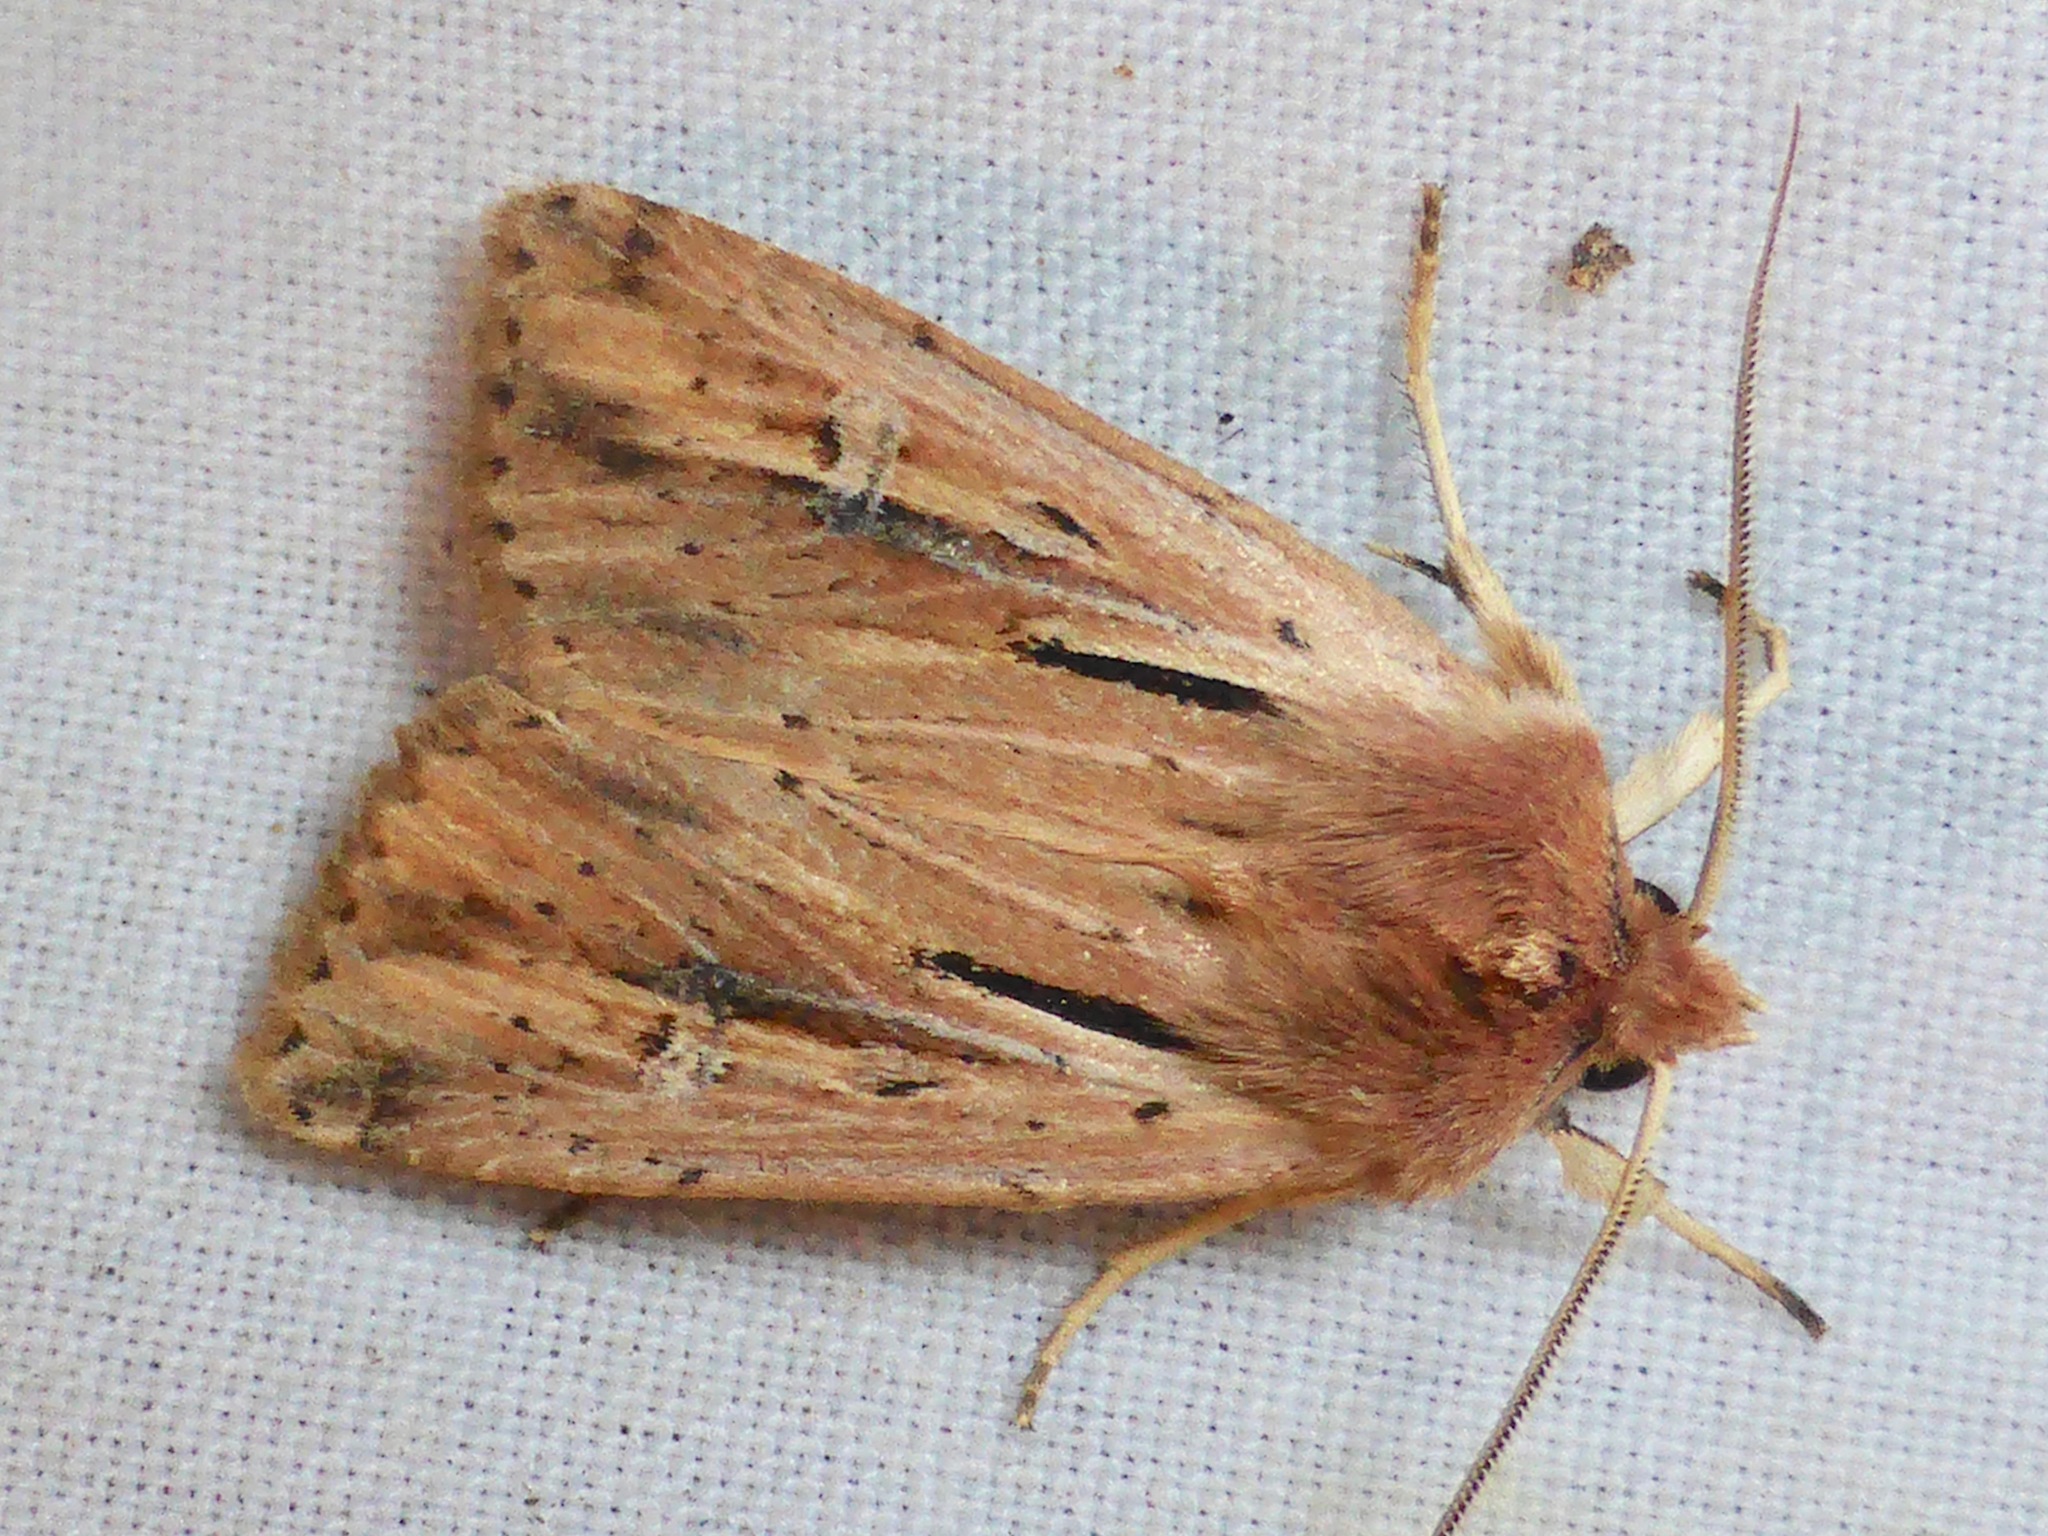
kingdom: Animalia
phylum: Arthropoda
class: Insecta
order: Lepidoptera
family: Noctuidae
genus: Ichneutica
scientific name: Ichneutica propria
